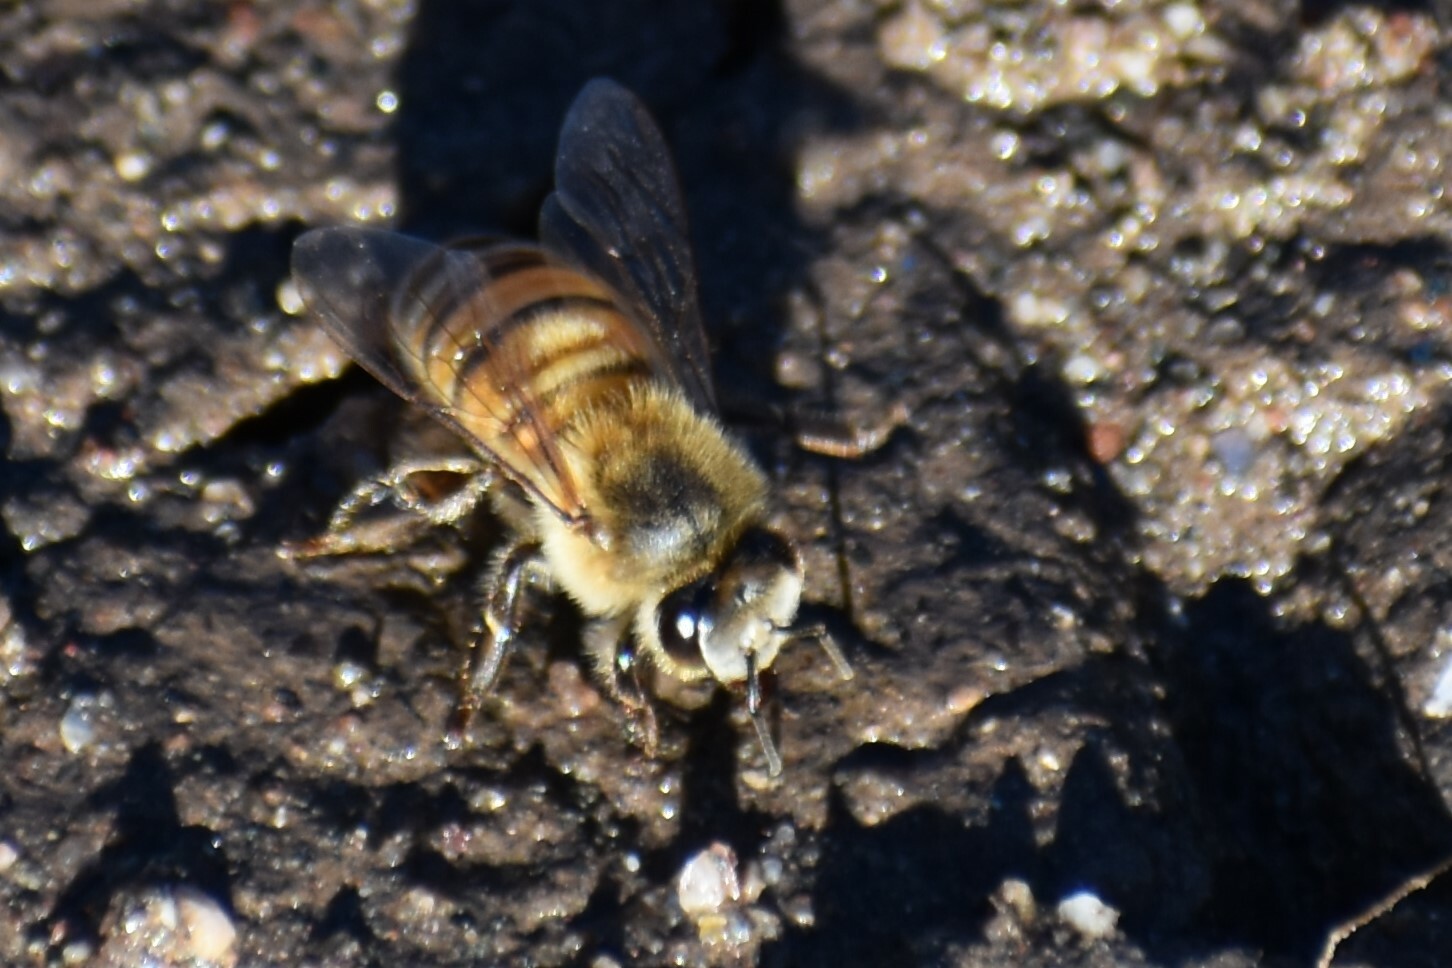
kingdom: Animalia
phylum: Arthropoda
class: Insecta
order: Hymenoptera
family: Apidae
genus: Apis
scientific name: Apis mellifera
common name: Honey bee
